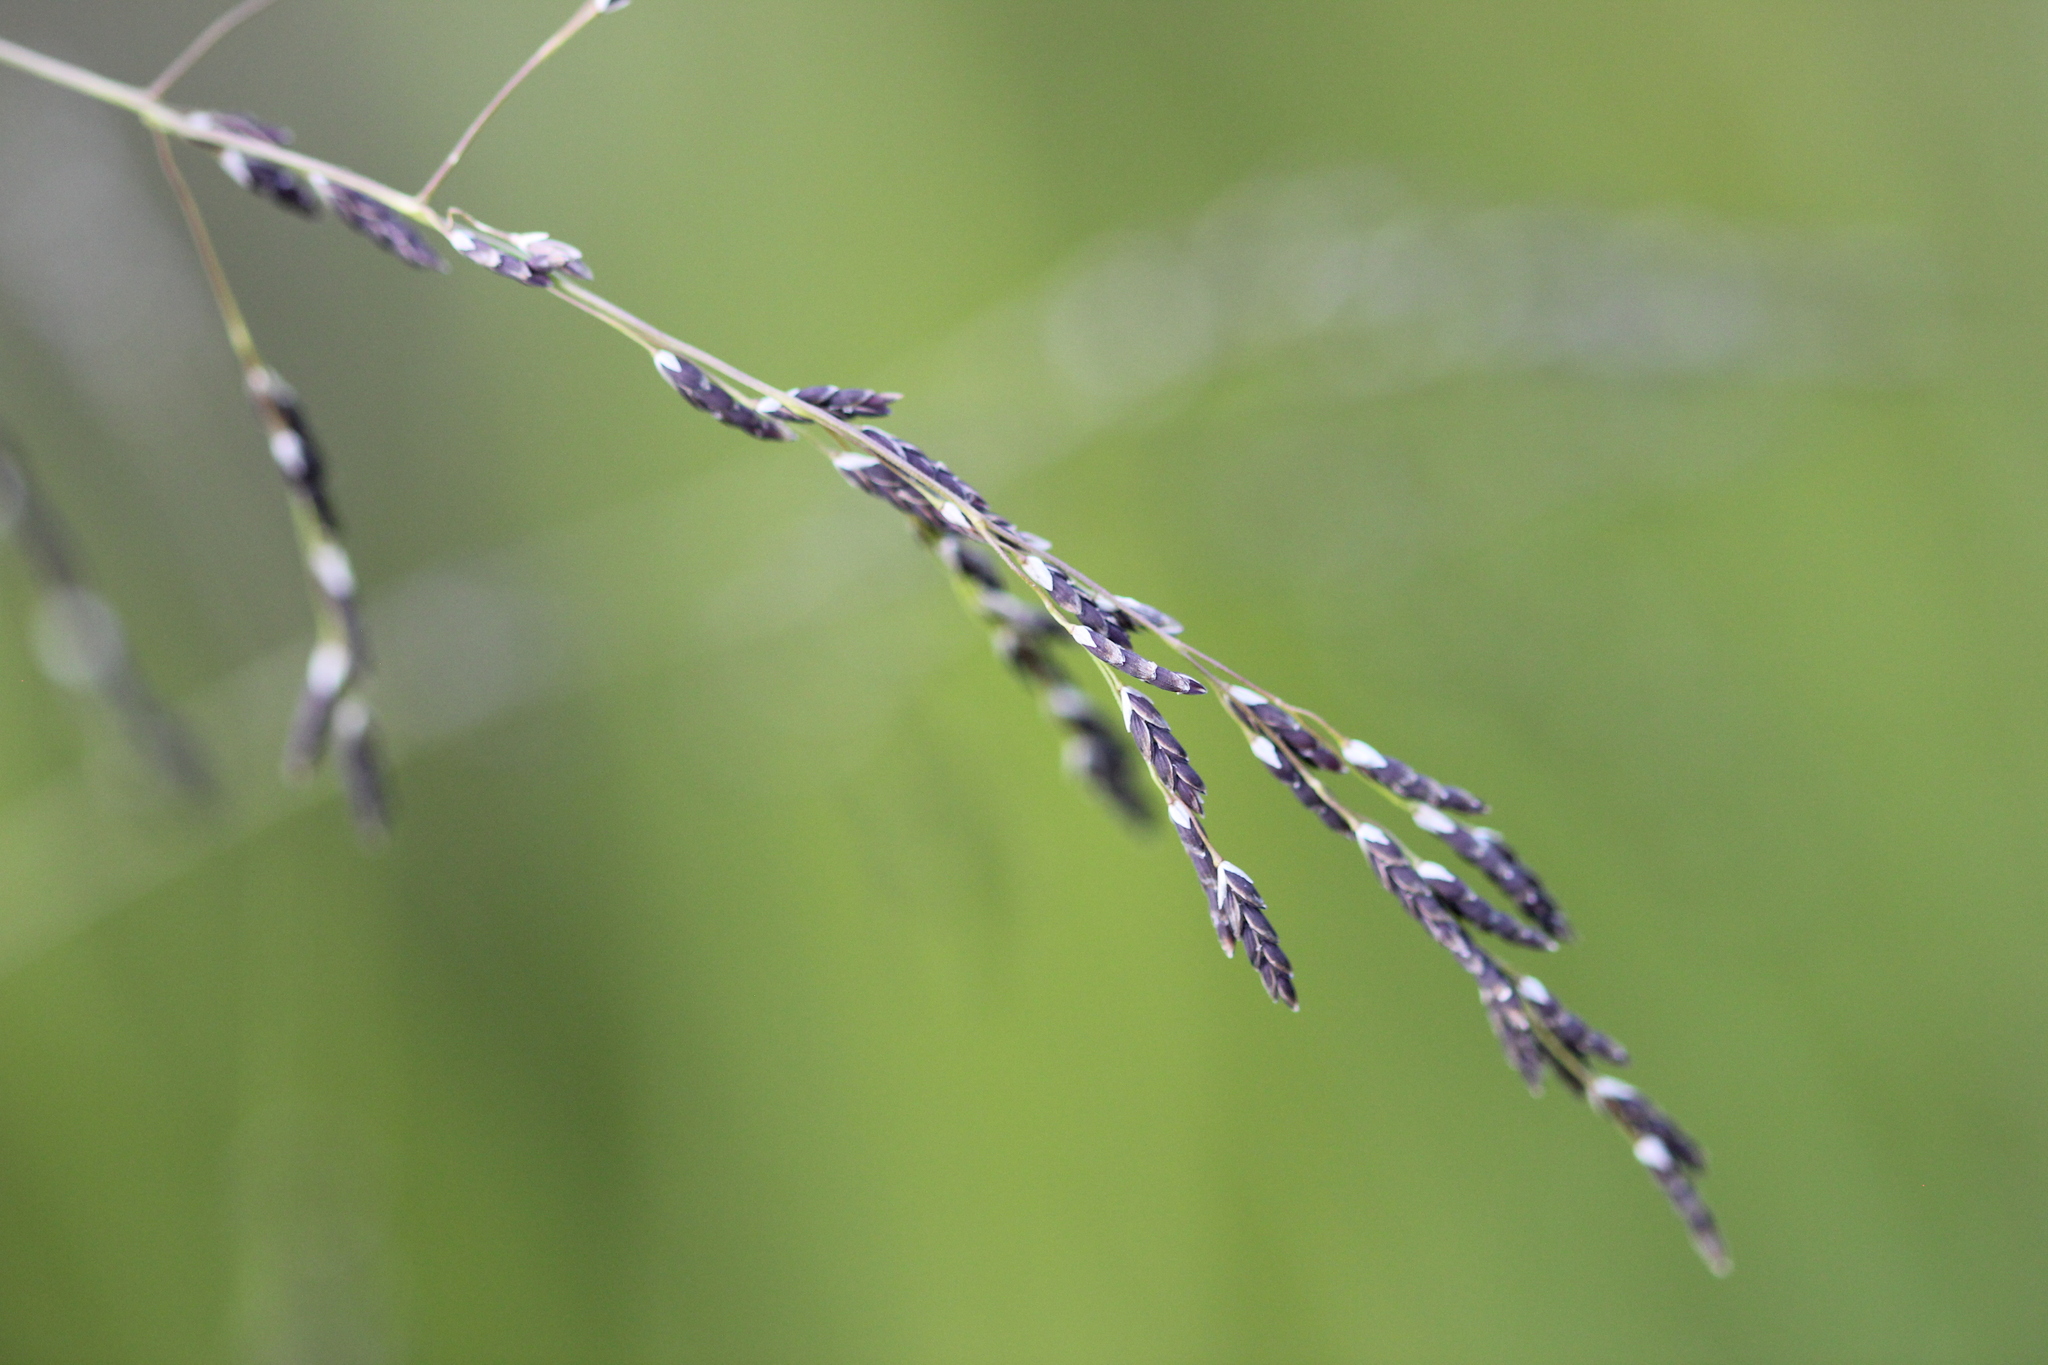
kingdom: Plantae
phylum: Tracheophyta
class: Liliopsida
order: Poales
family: Poaceae
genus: Glyceria
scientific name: Glyceria grandis
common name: American glyceria
